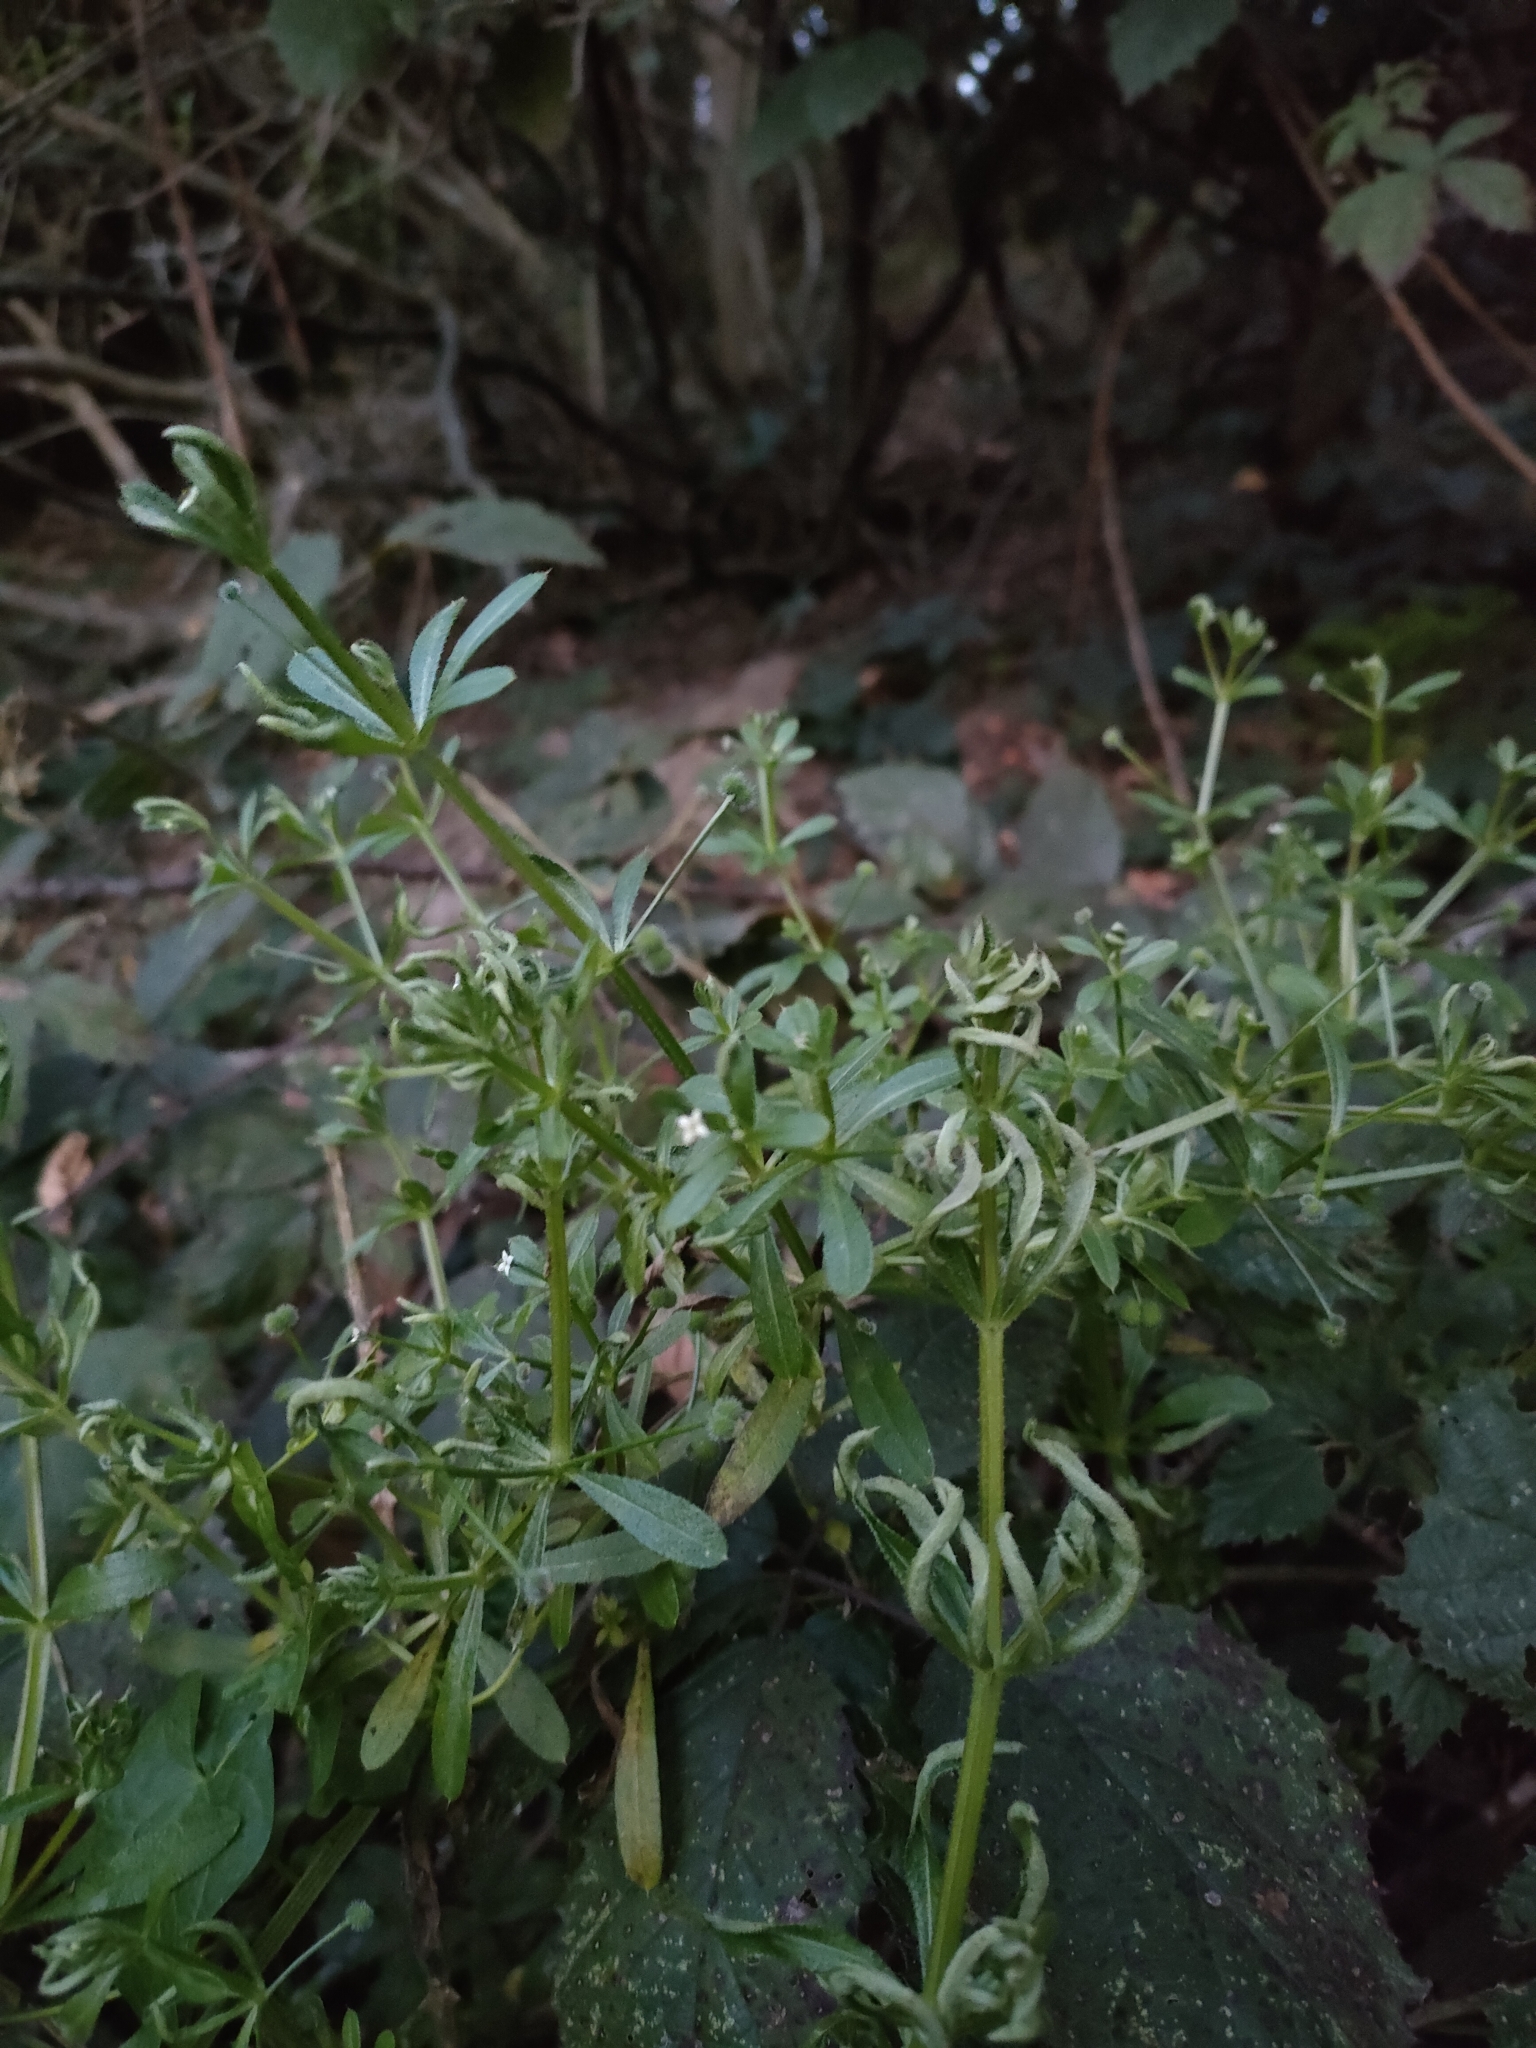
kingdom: Plantae
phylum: Tracheophyta
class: Magnoliopsida
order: Gentianales
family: Rubiaceae
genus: Galium
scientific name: Galium aparine
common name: Cleavers
